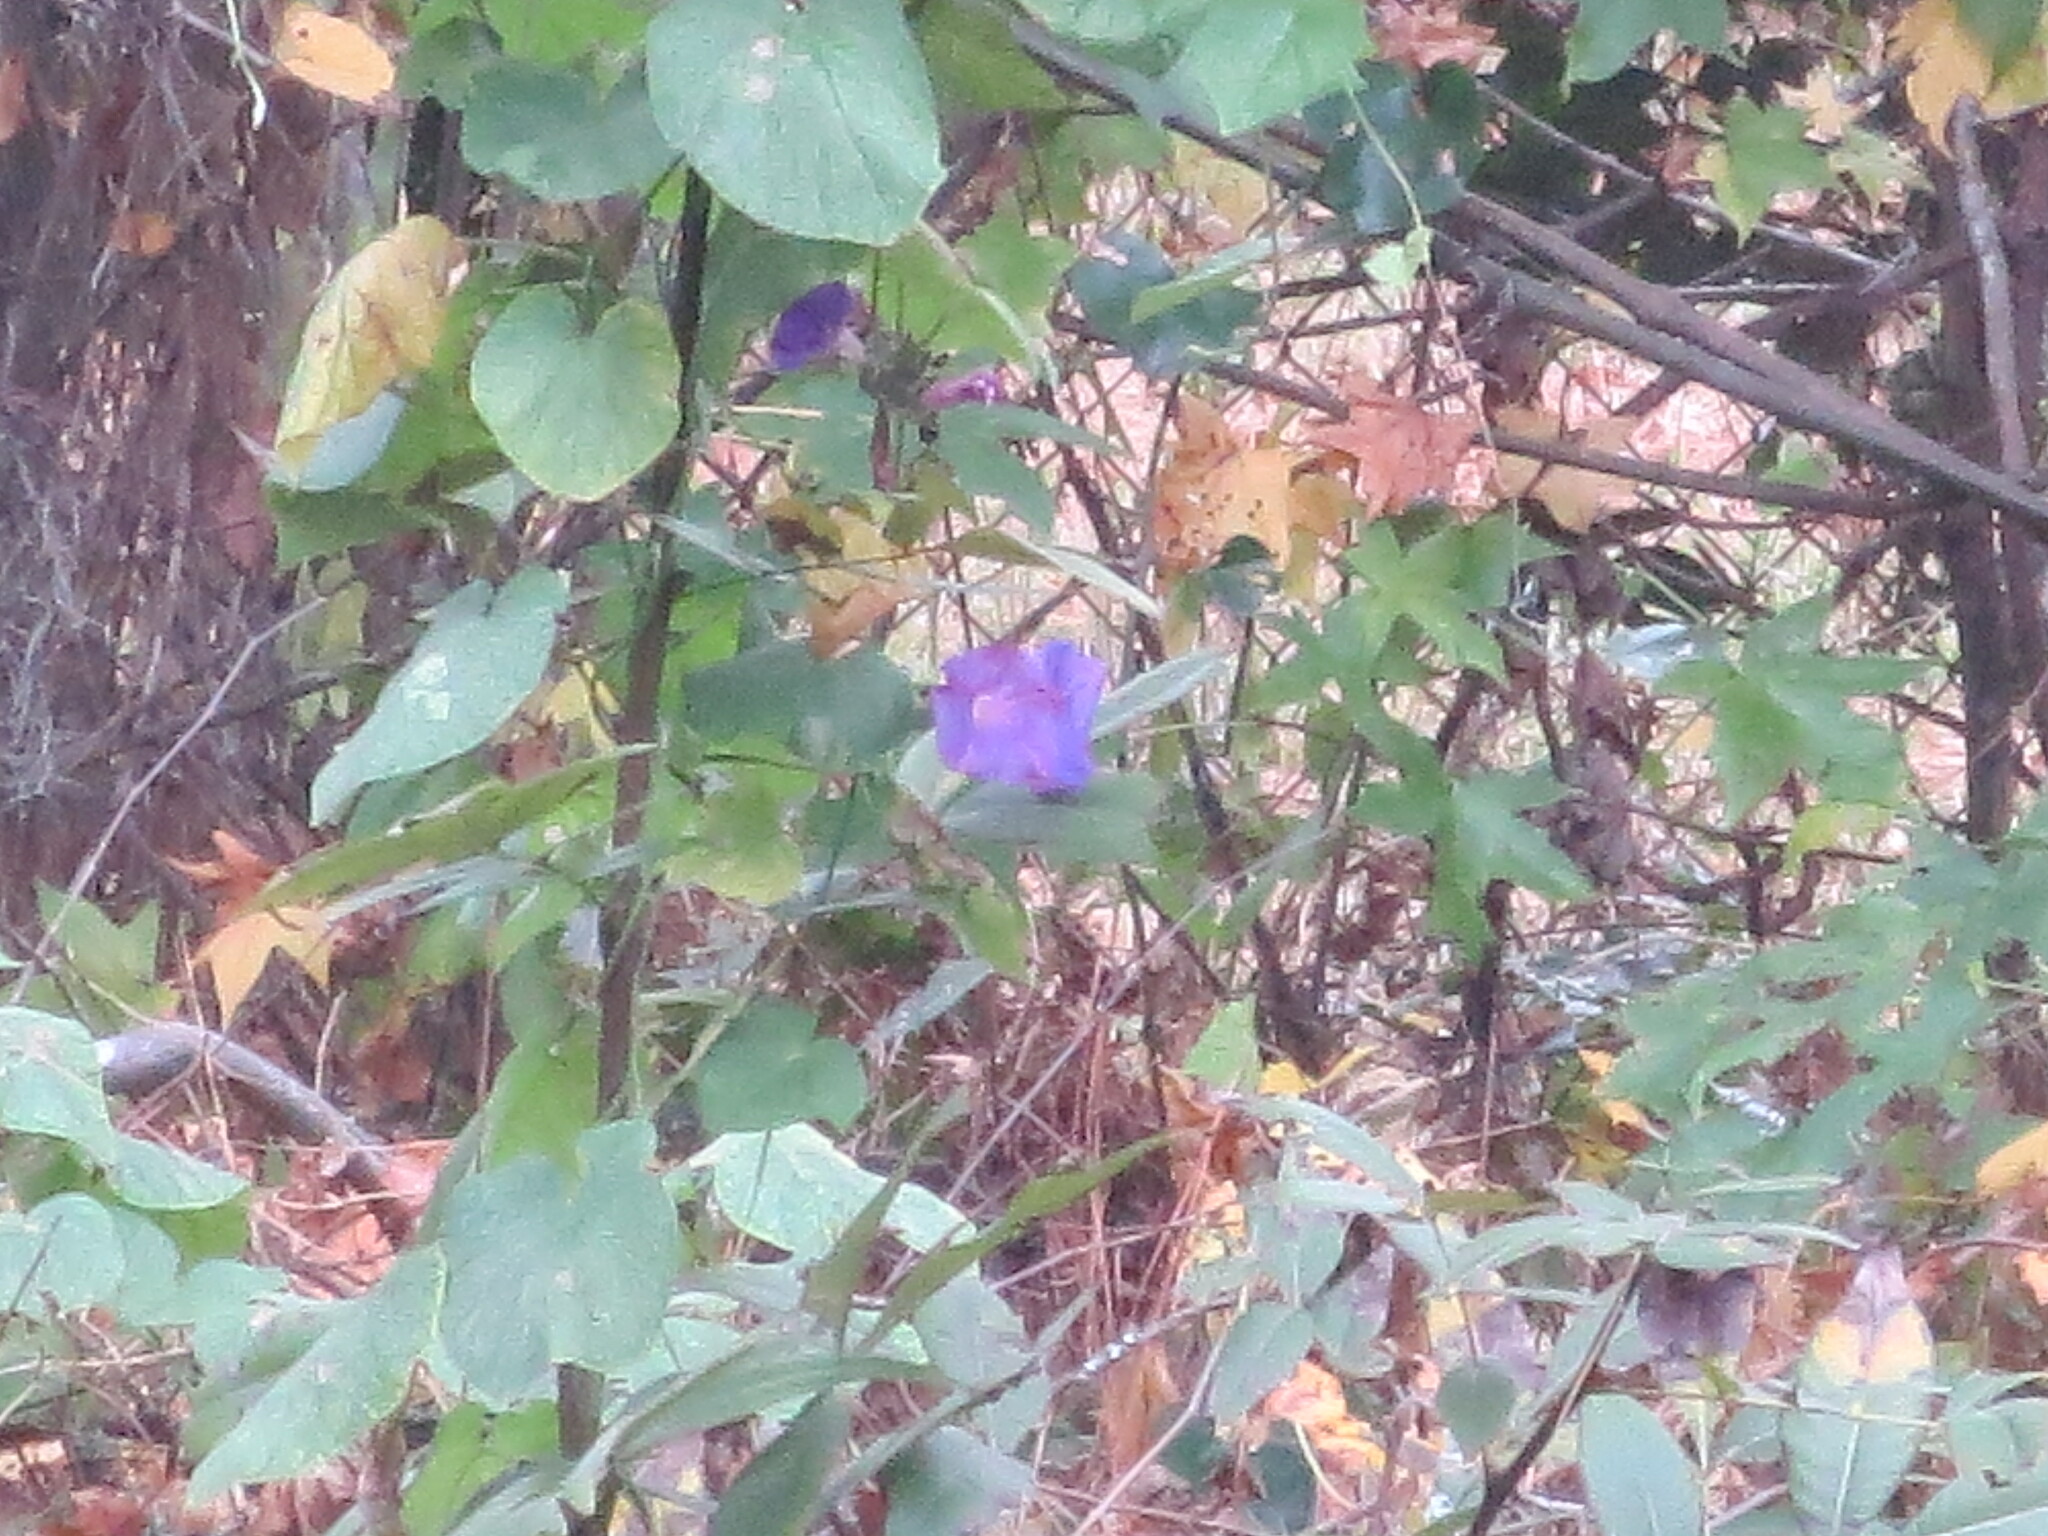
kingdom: Plantae
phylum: Tracheophyta
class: Magnoliopsida
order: Solanales
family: Convolvulaceae
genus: Ipomoea
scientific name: Ipomoea indica
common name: Blue dawnflower
